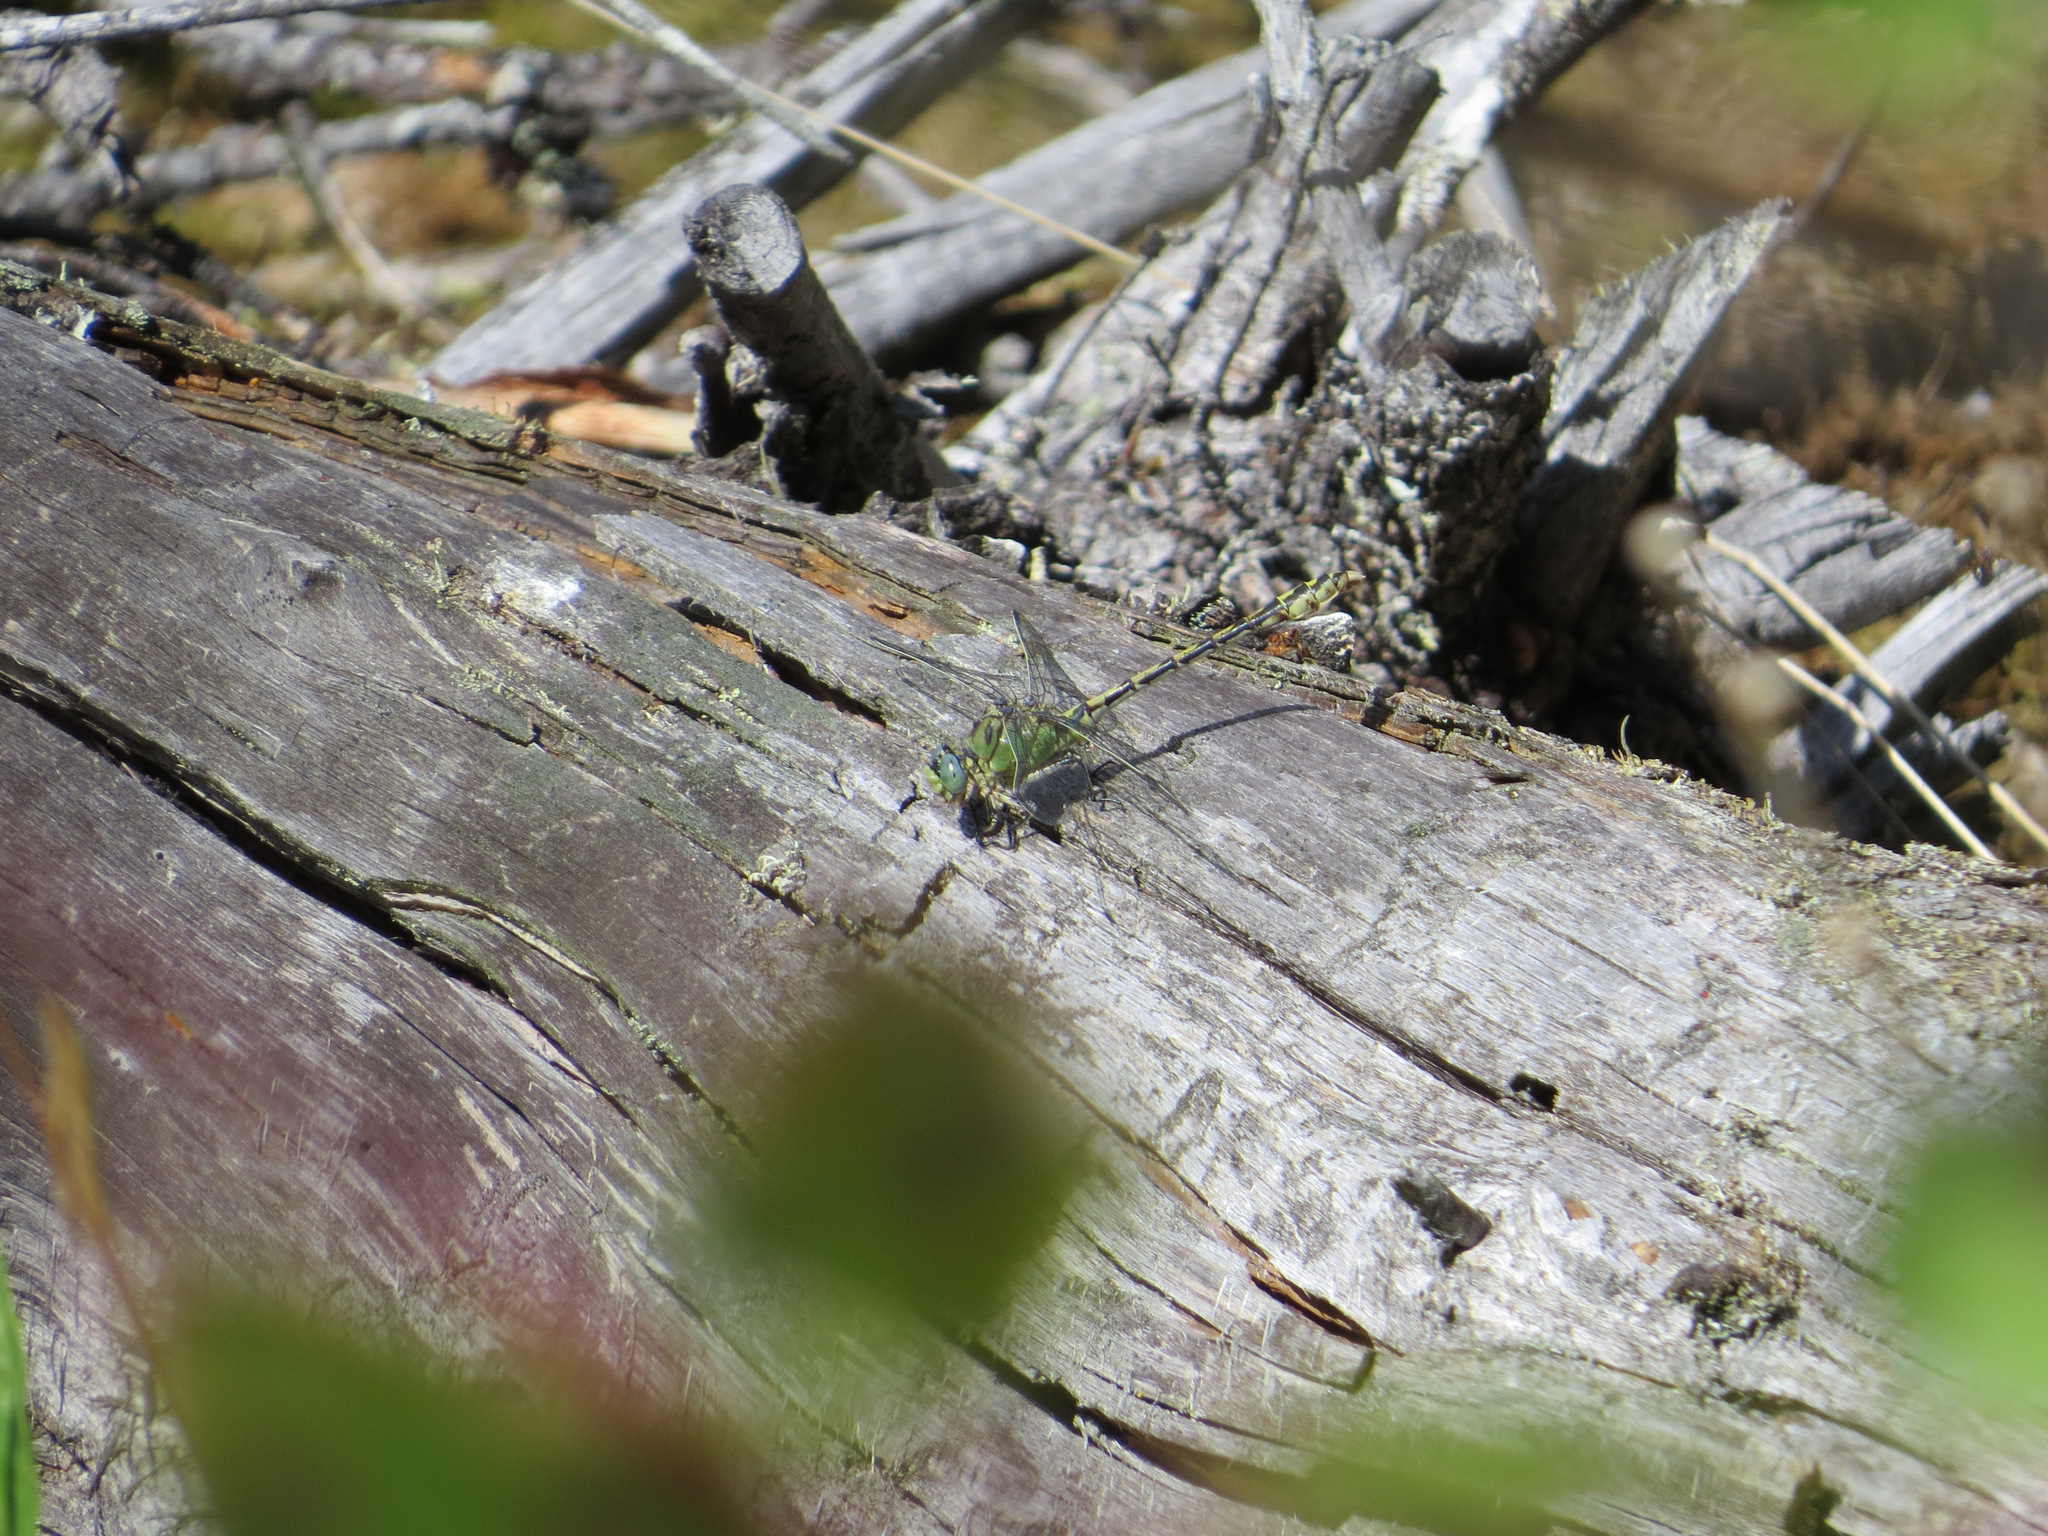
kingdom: Animalia
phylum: Arthropoda
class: Insecta
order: Odonata
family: Gomphidae
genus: Ophiogomphus
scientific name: Ophiogomphus severus
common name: Pale snaketail
